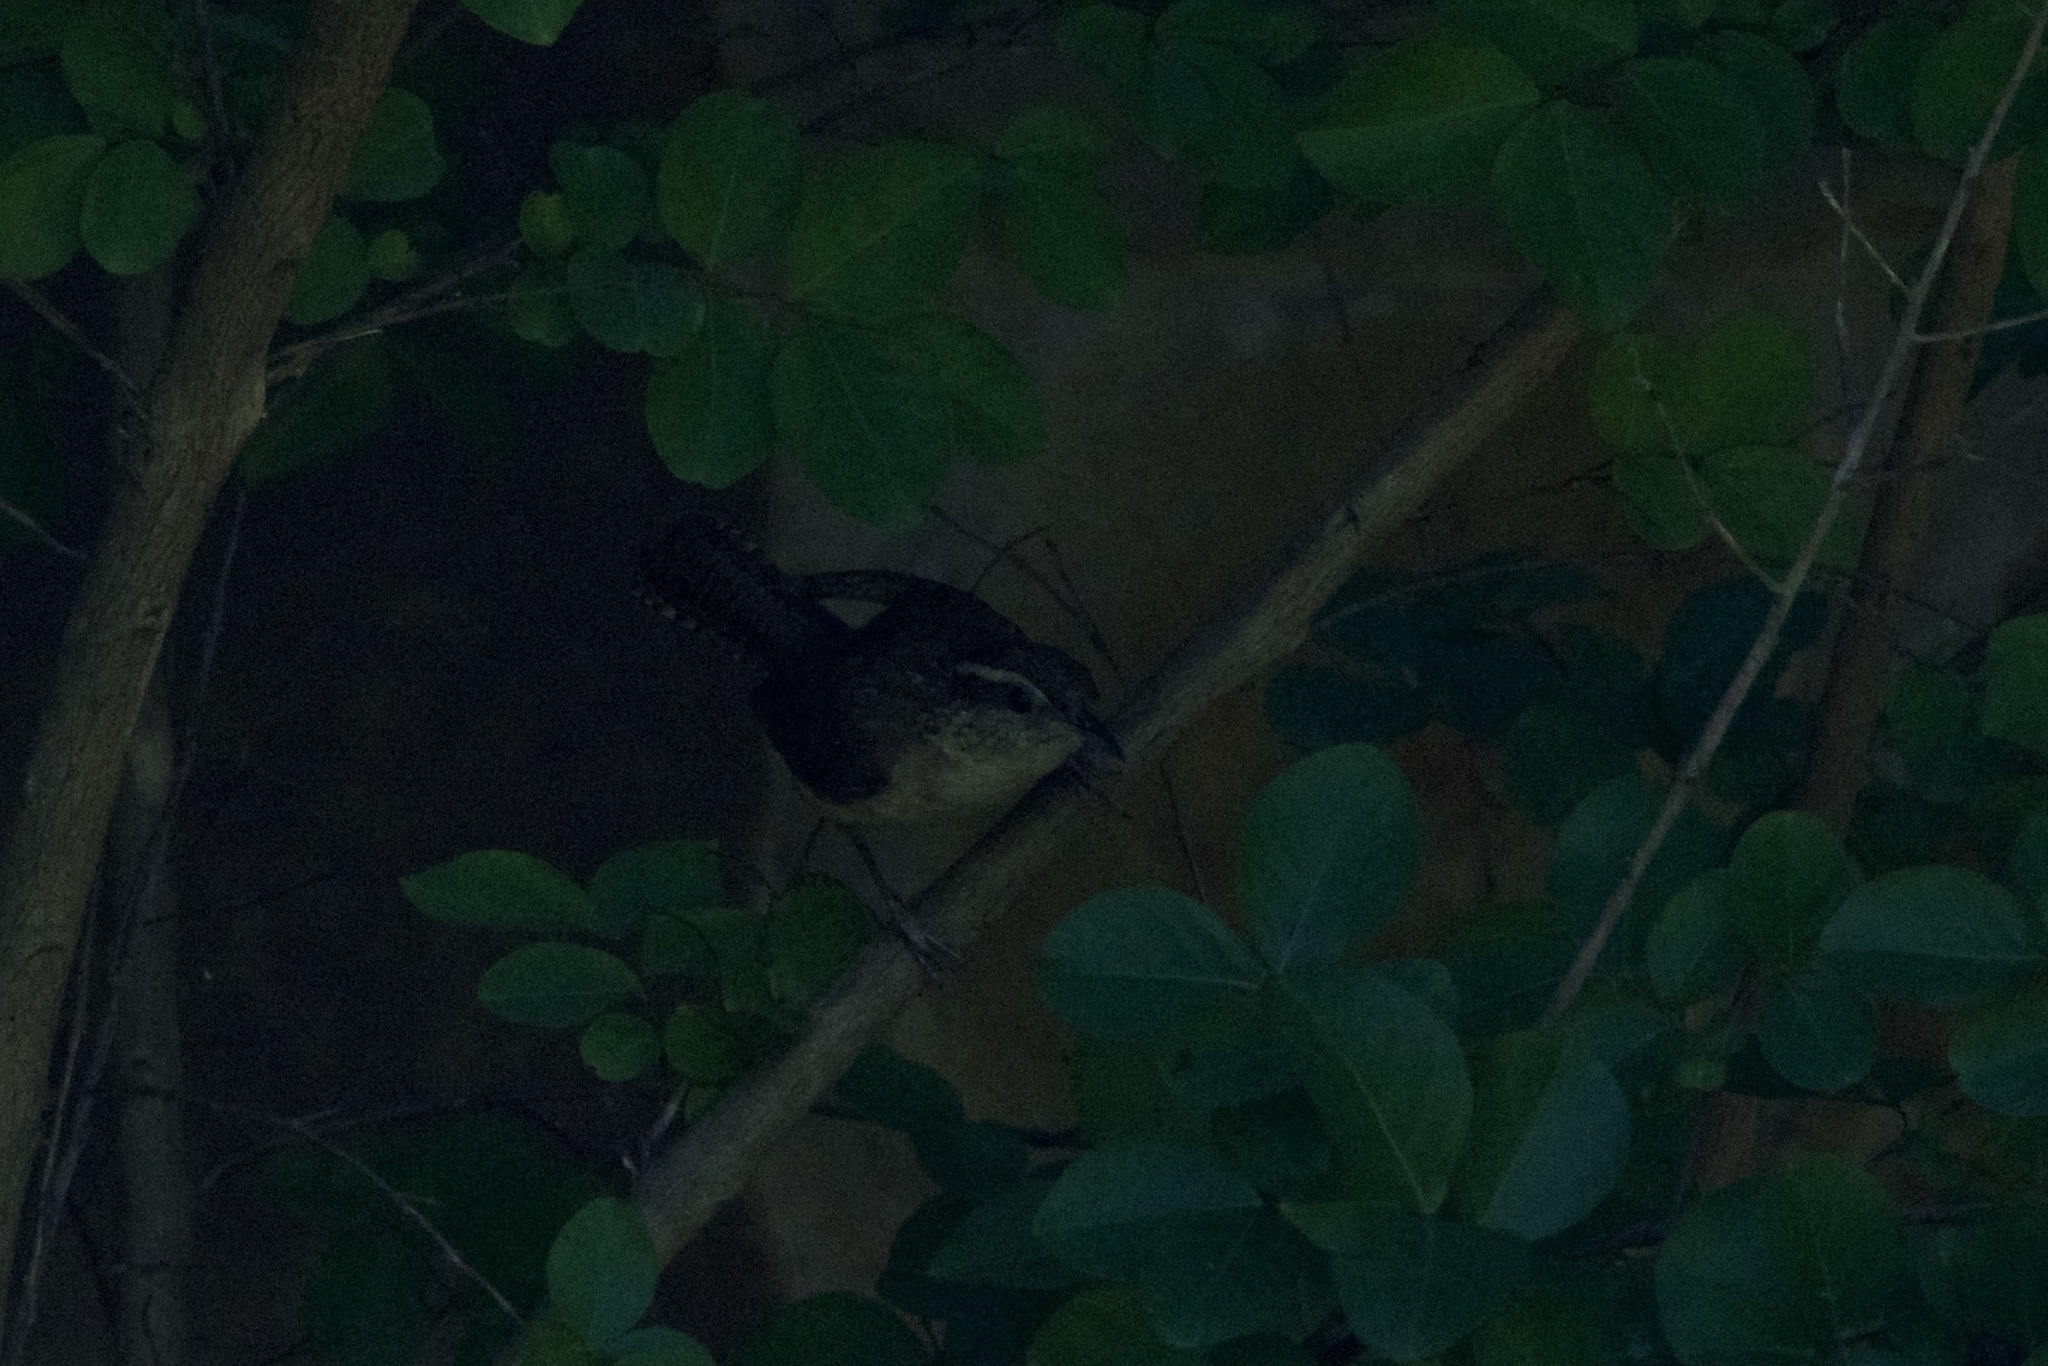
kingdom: Animalia
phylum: Chordata
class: Aves
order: Passeriformes
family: Troglodytidae
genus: Thryothorus
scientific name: Thryothorus ludovicianus
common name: Carolina wren
